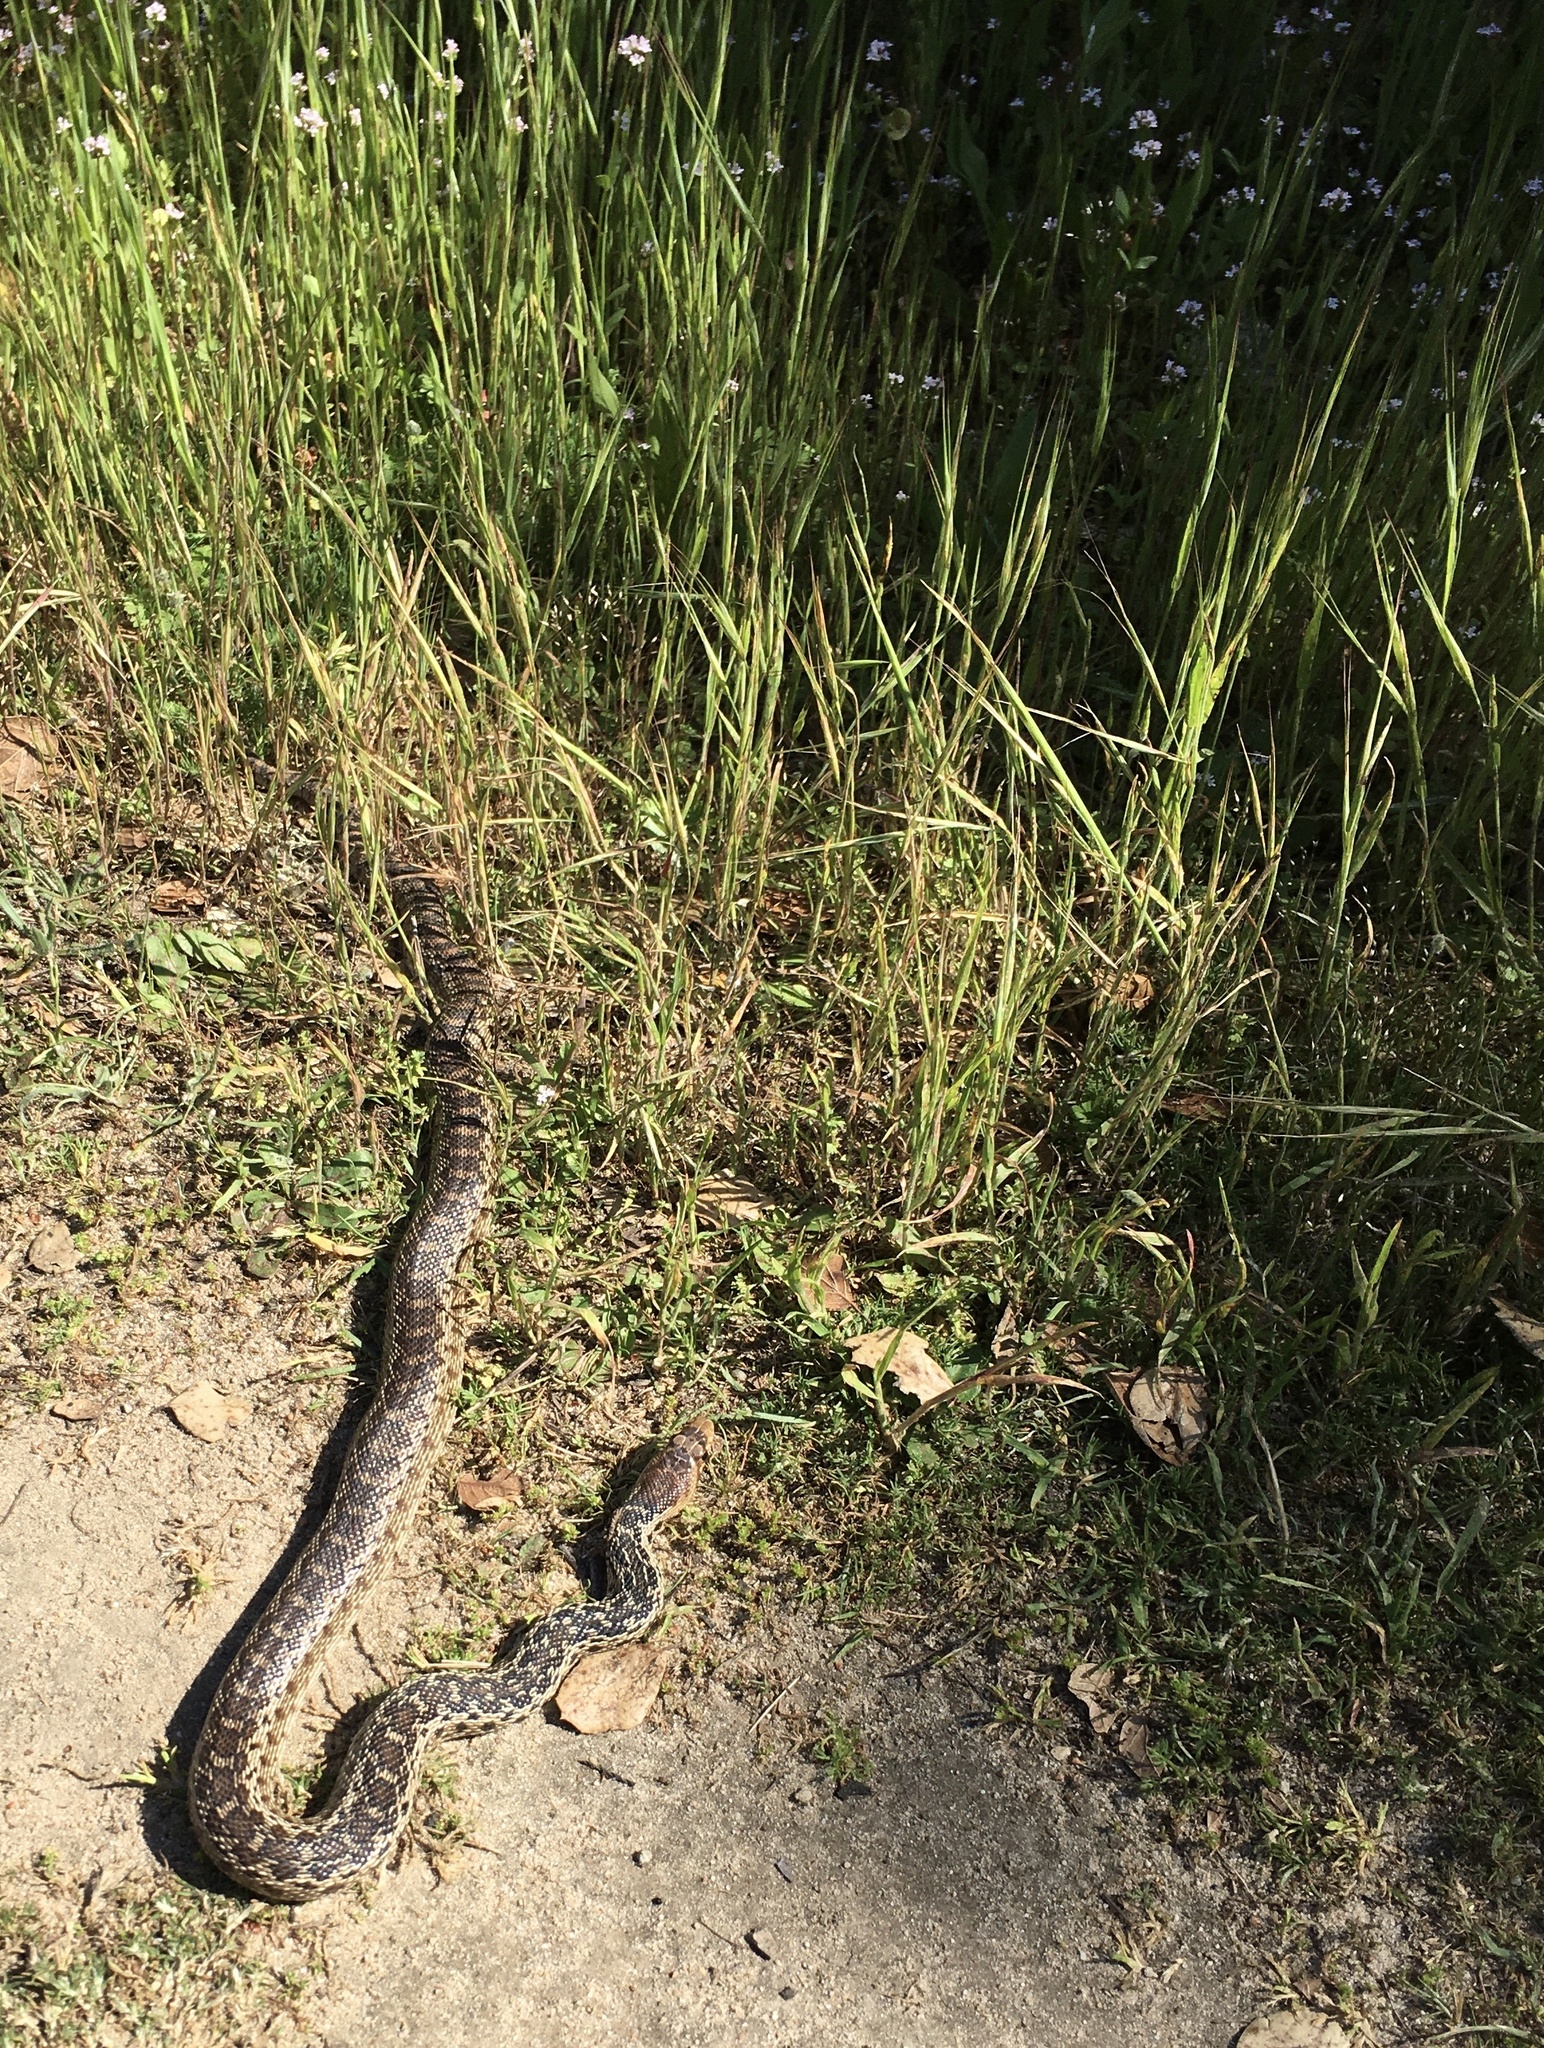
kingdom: Animalia
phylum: Chordata
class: Squamata
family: Colubridae
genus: Pituophis
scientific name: Pituophis catenifer
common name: Gopher snake
